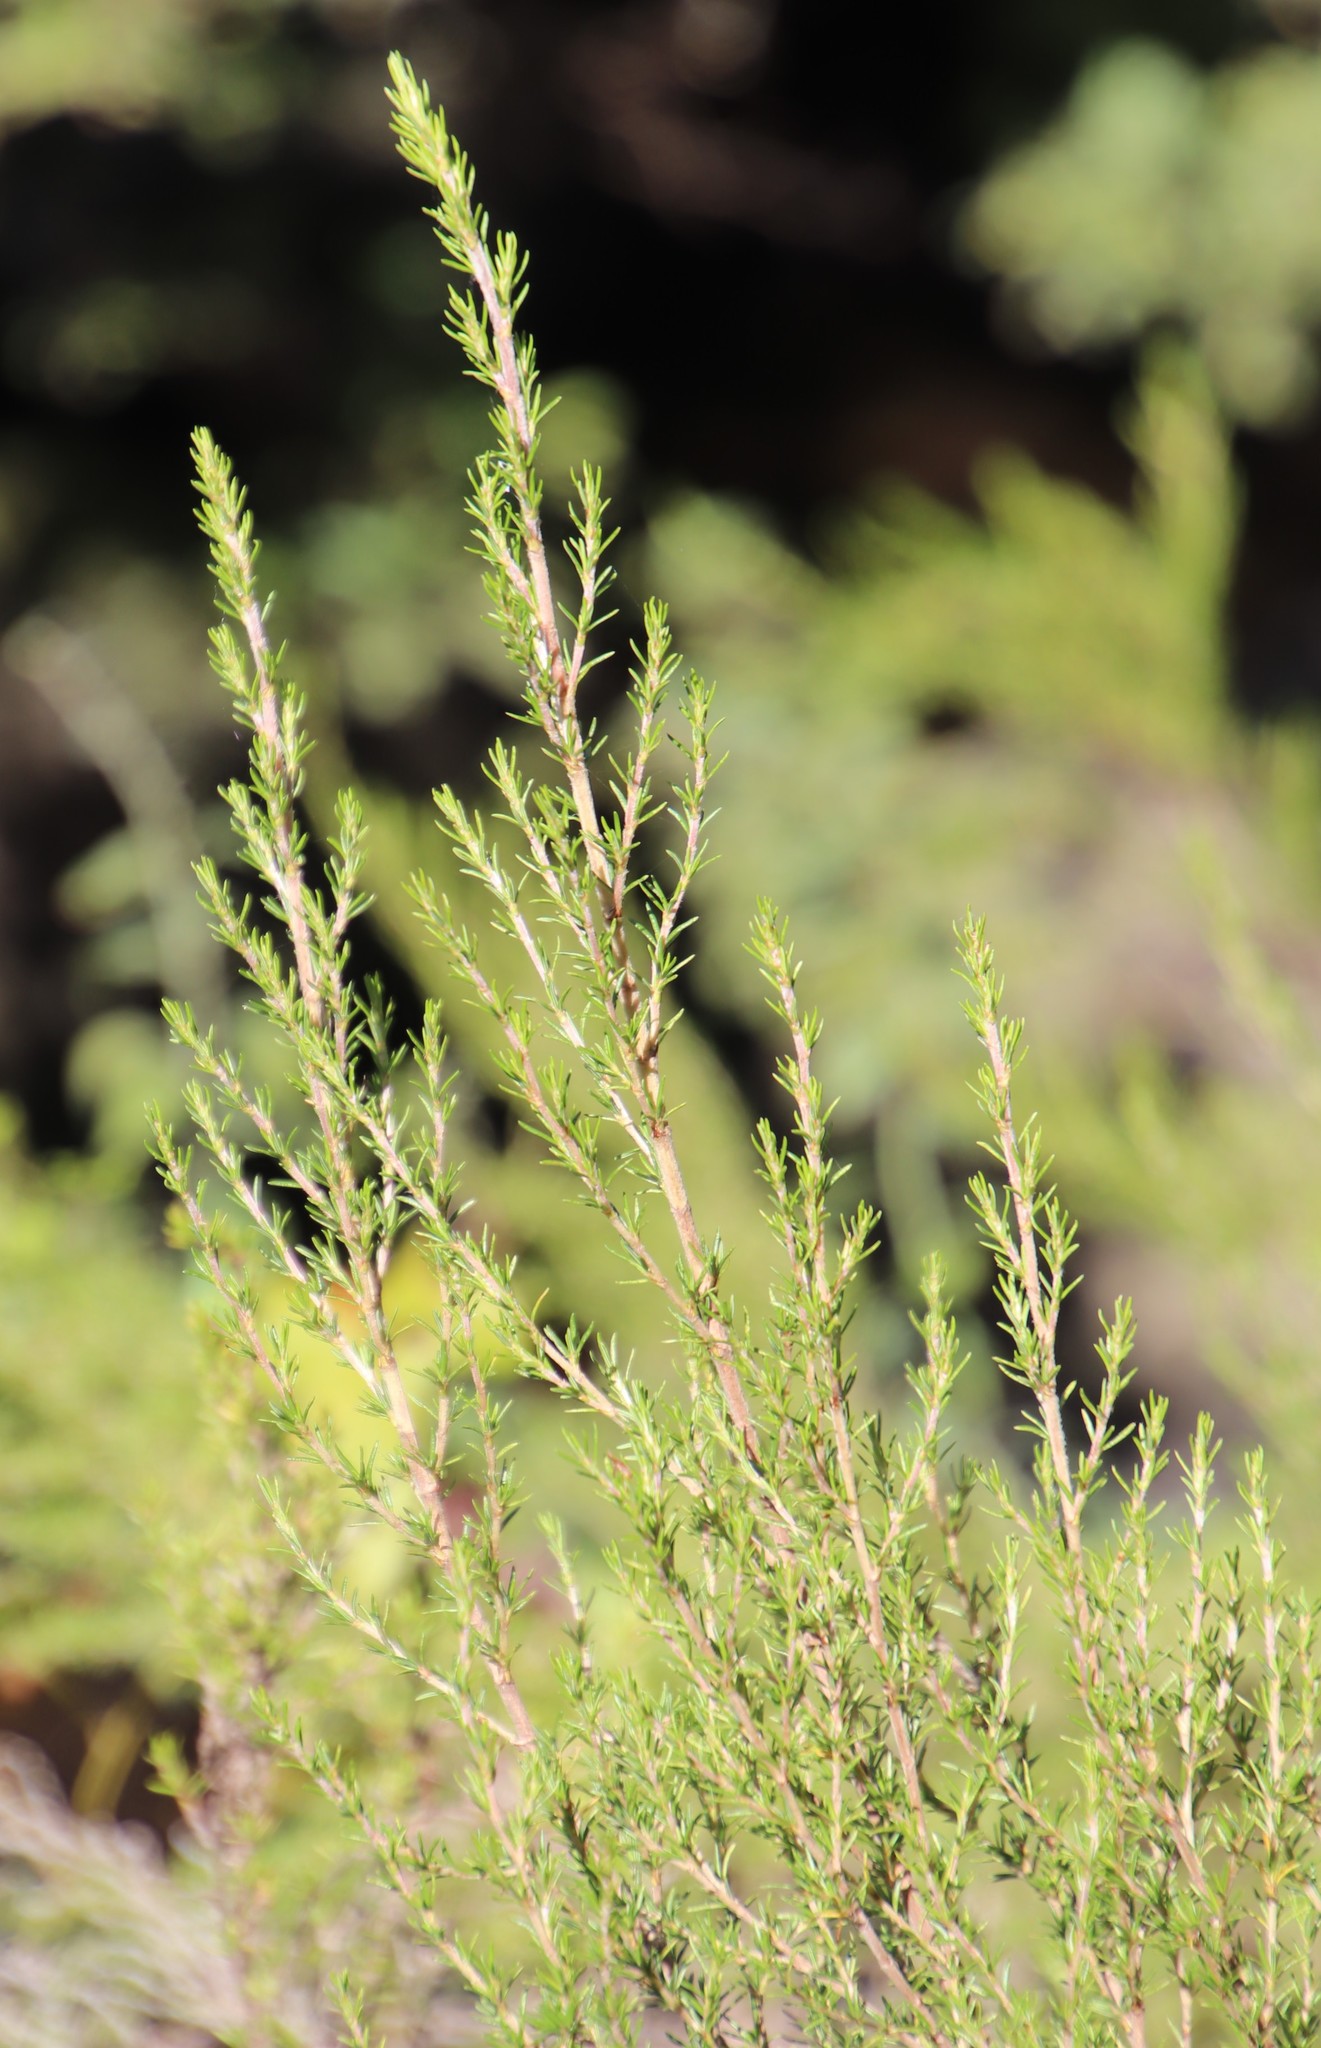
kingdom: Plantae
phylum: Tracheophyta
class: Magnoliopsida
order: Rosales
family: Rosaceae
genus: Cliffortia
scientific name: Cliffortia linearifolia
